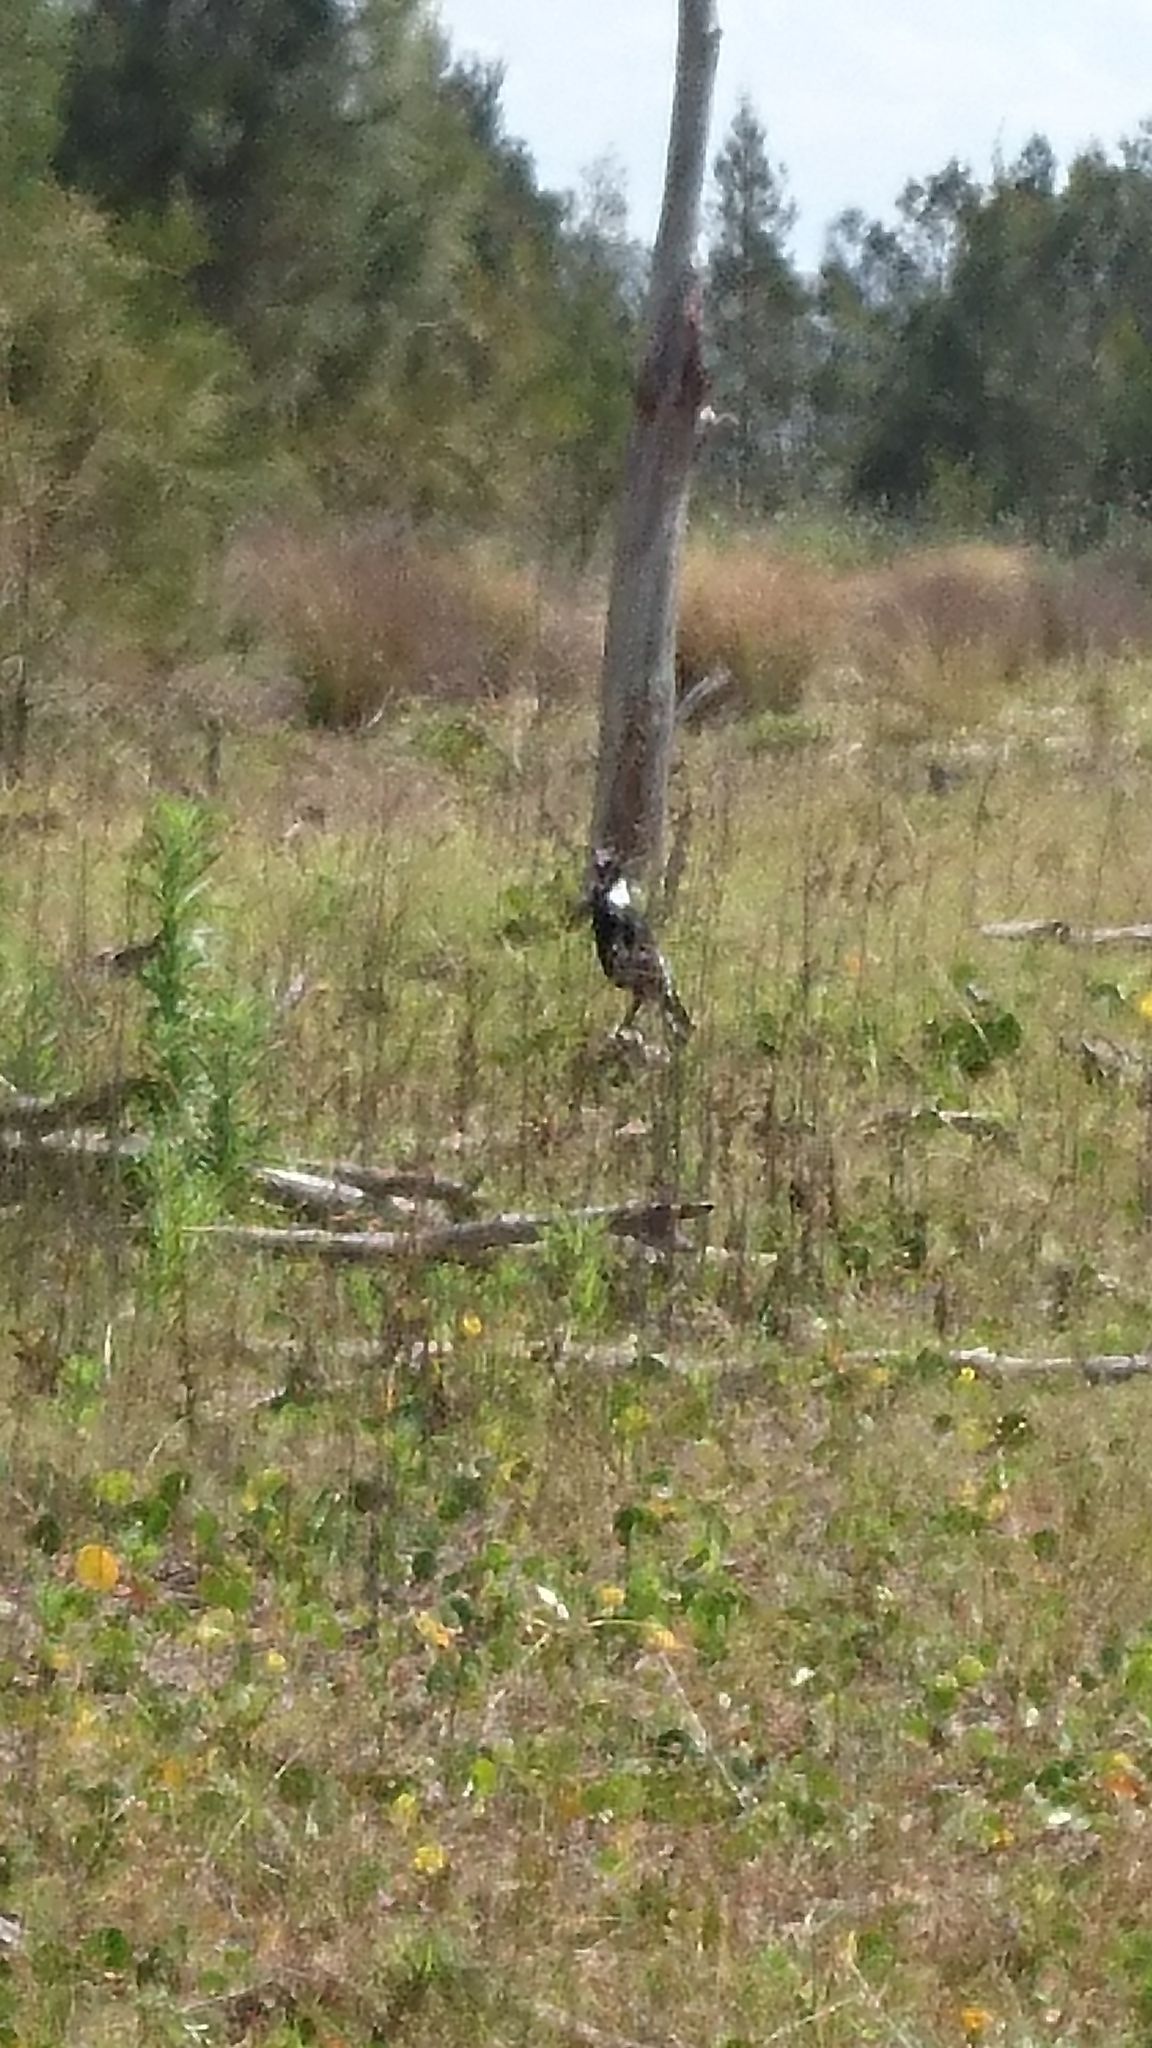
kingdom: Animalia
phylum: Chordata
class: Aves
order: Passeriformes
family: Cracticidae
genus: Gymnorhina
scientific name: Gymnorhina tibicen
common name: Australian magpie
